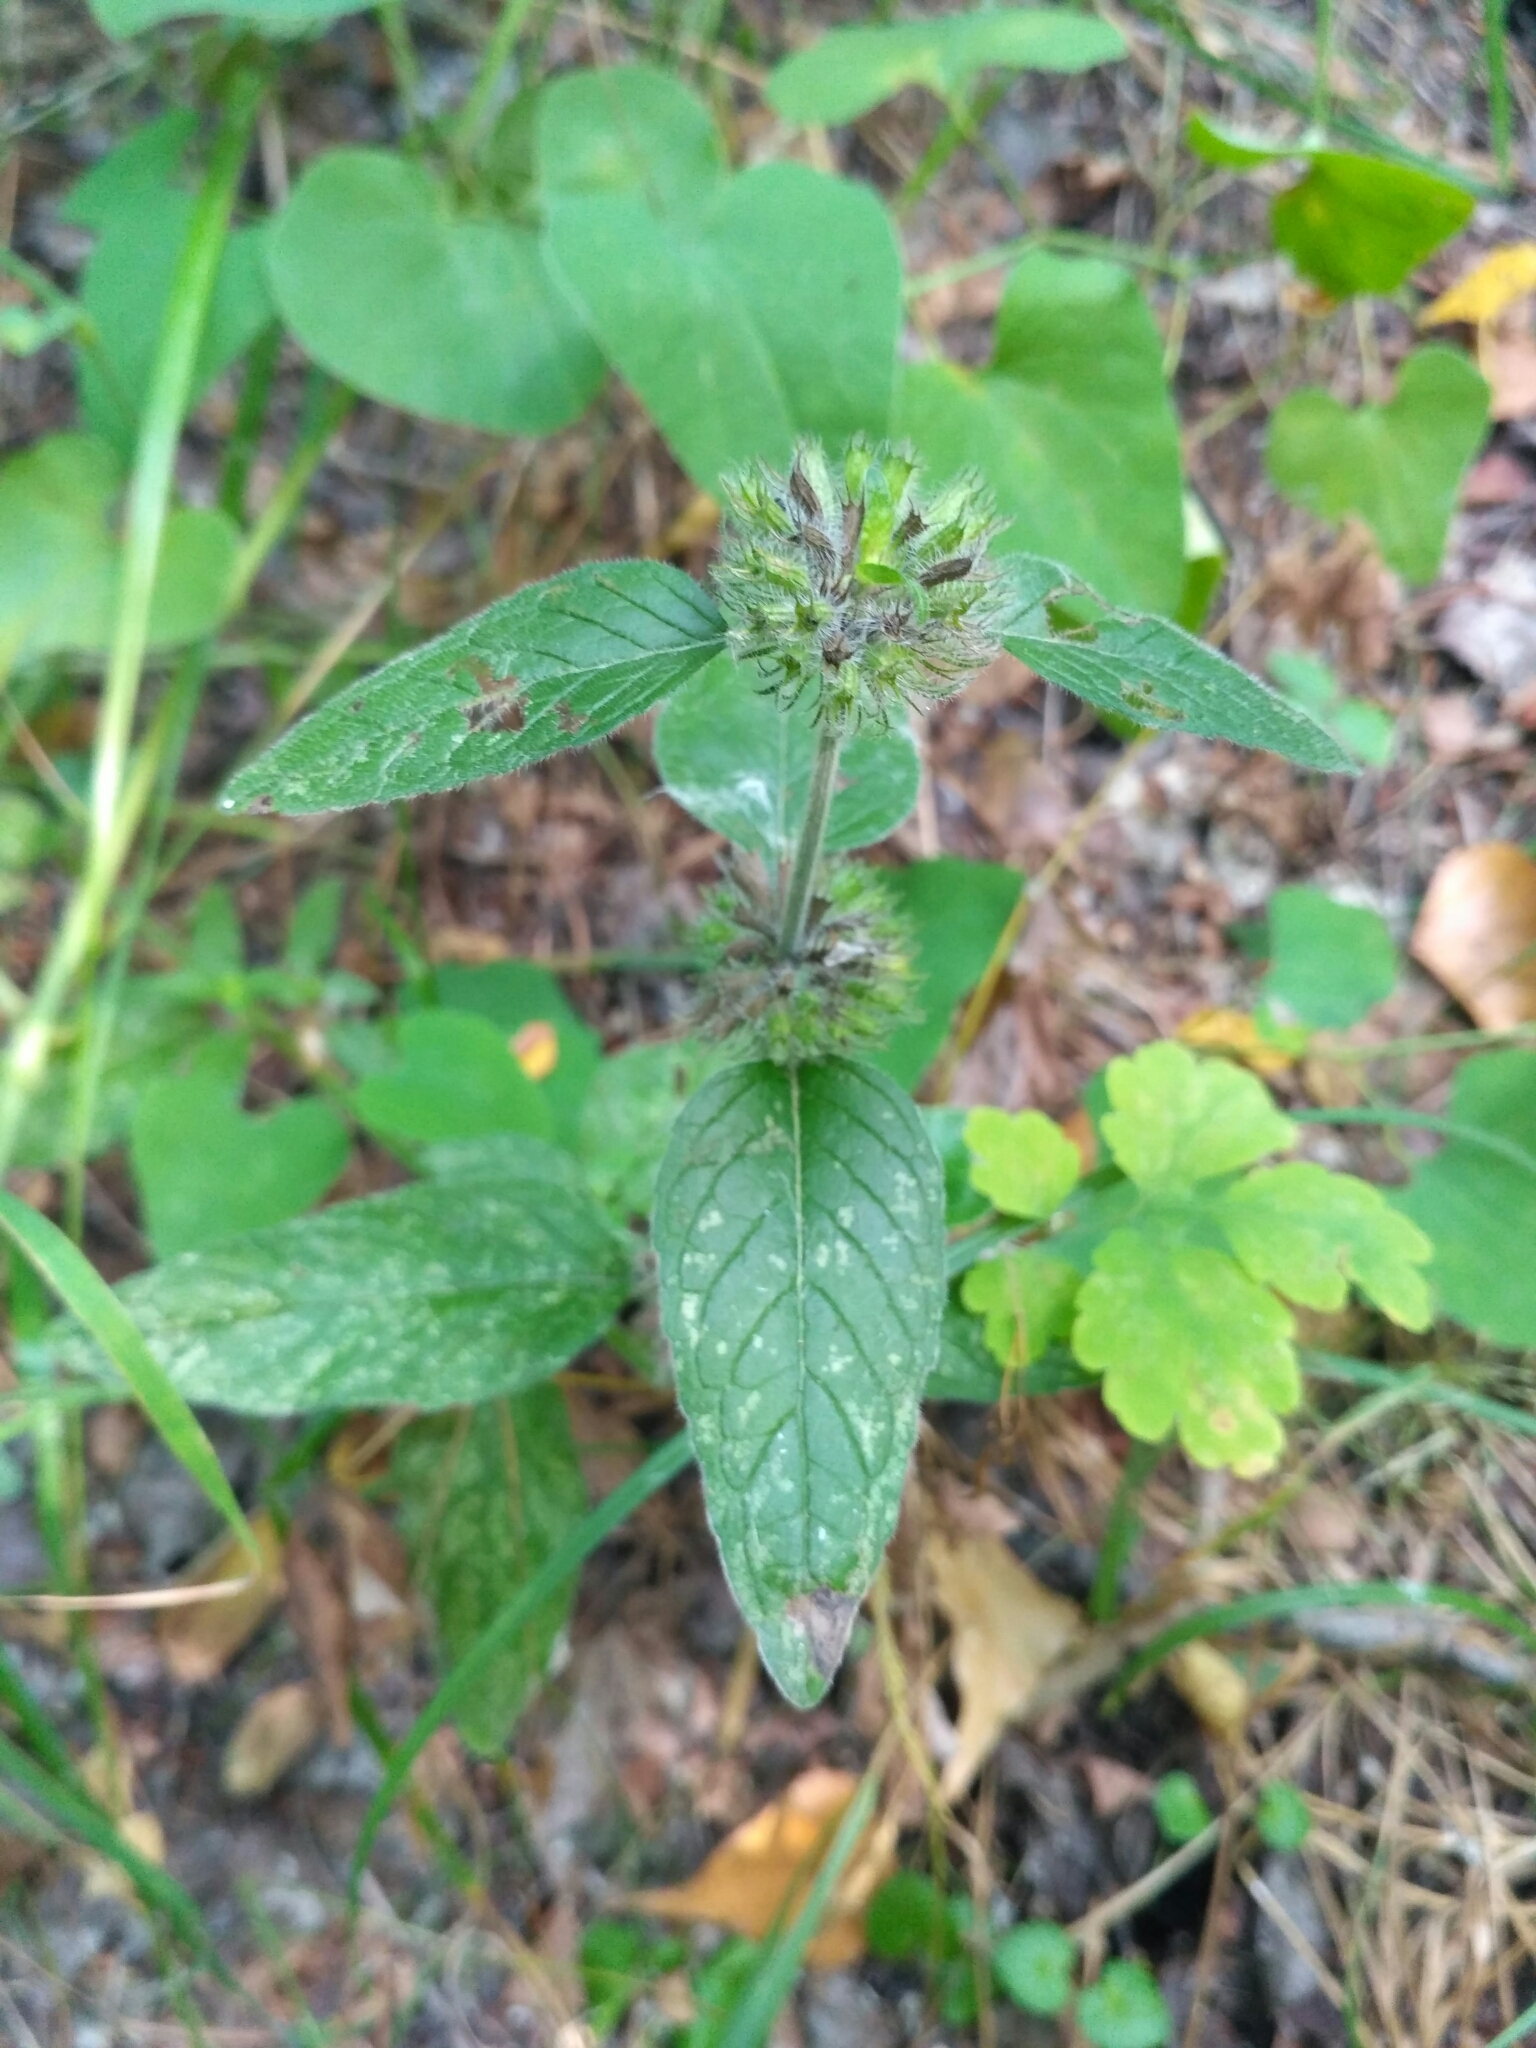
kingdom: Plantae
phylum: Tracheophyta
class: Magnoliopsida
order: Lamiales
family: Lamiaceae
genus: Clinopodium
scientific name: Clinopodium vulgare
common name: Wild basil
